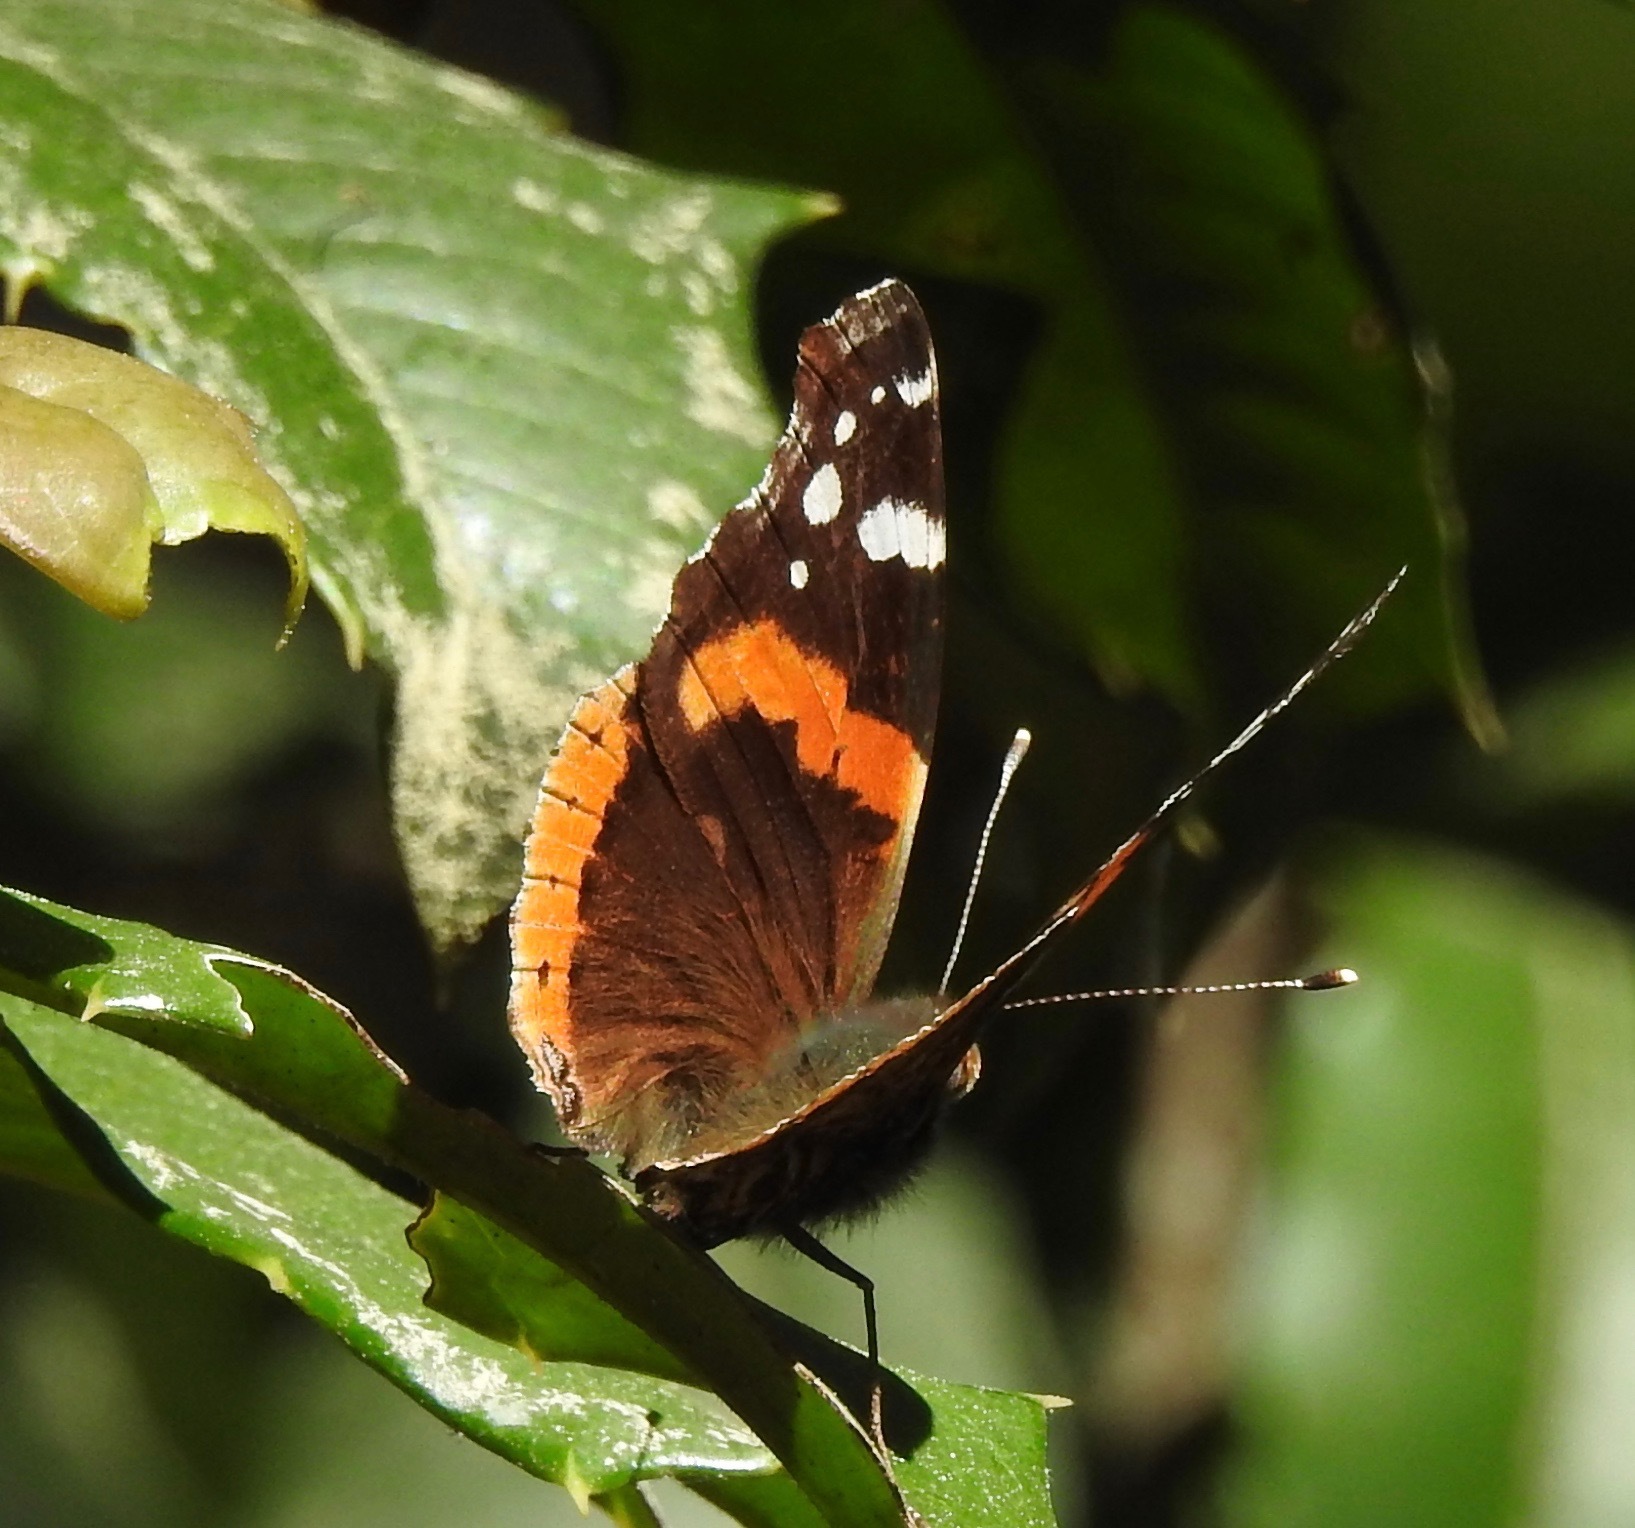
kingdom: Animalia
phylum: Arthropoda
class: Insecta
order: Lepidoptera
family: Nymphalidae
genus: Vanessa
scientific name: Vanessa atalanta
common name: Red admiral
